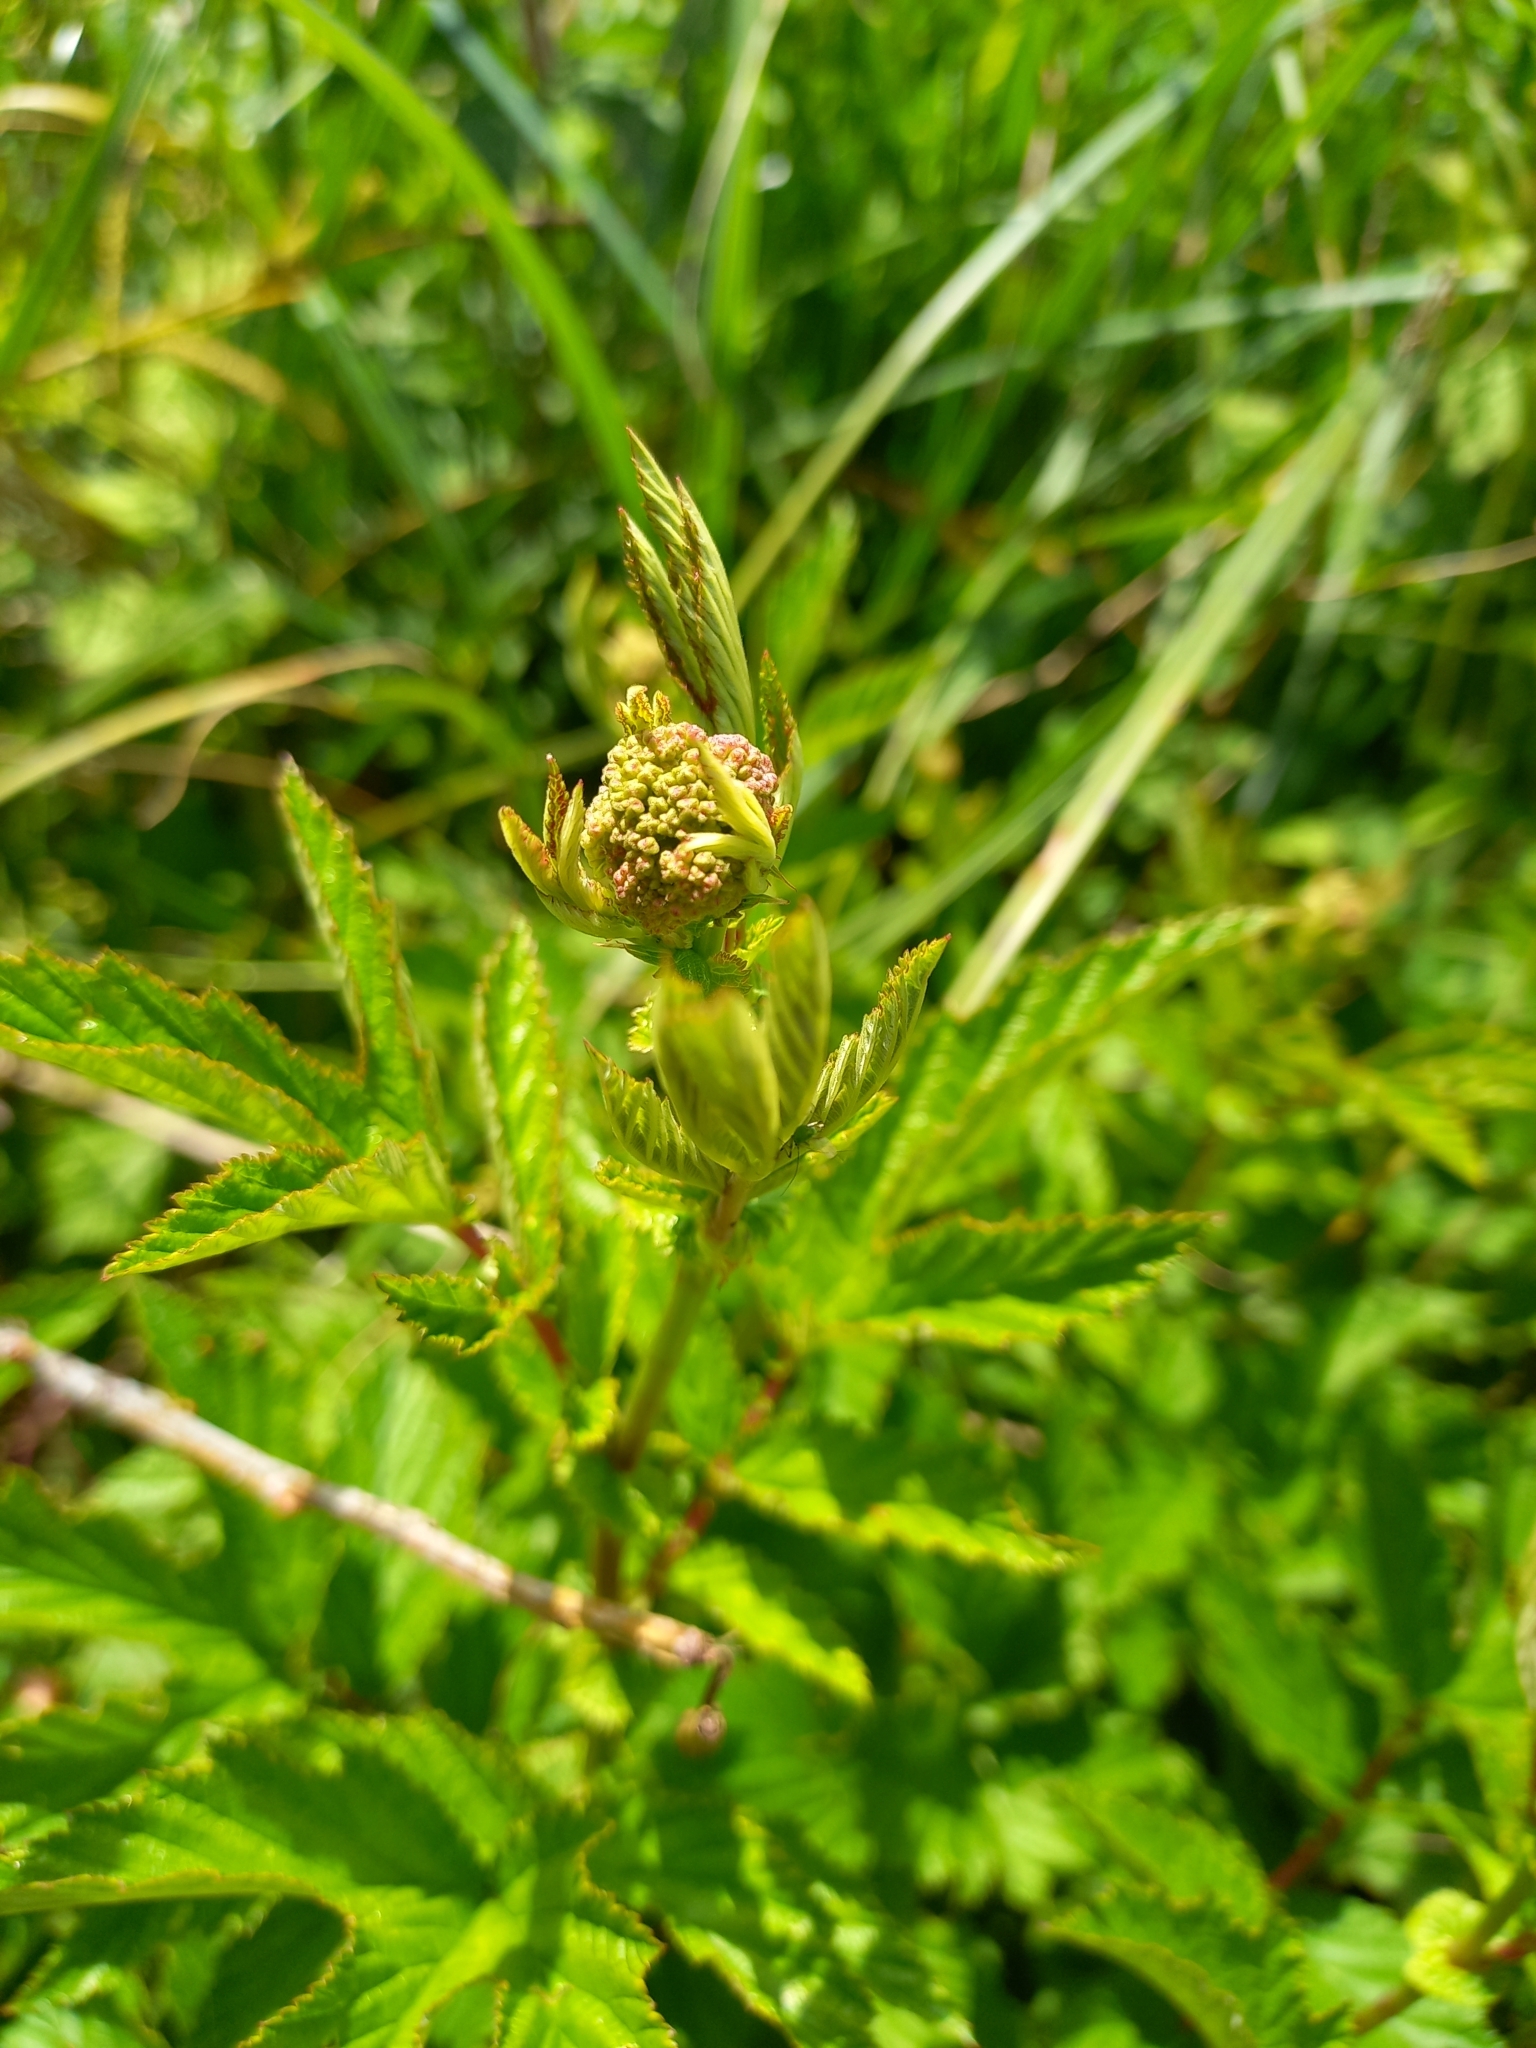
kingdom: Plantae
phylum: Tracheophyta
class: Magnoliopsida
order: Rosales
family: Rosaceae
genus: Filipendula
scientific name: Filipendula ulmaria
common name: Meadowsweet
